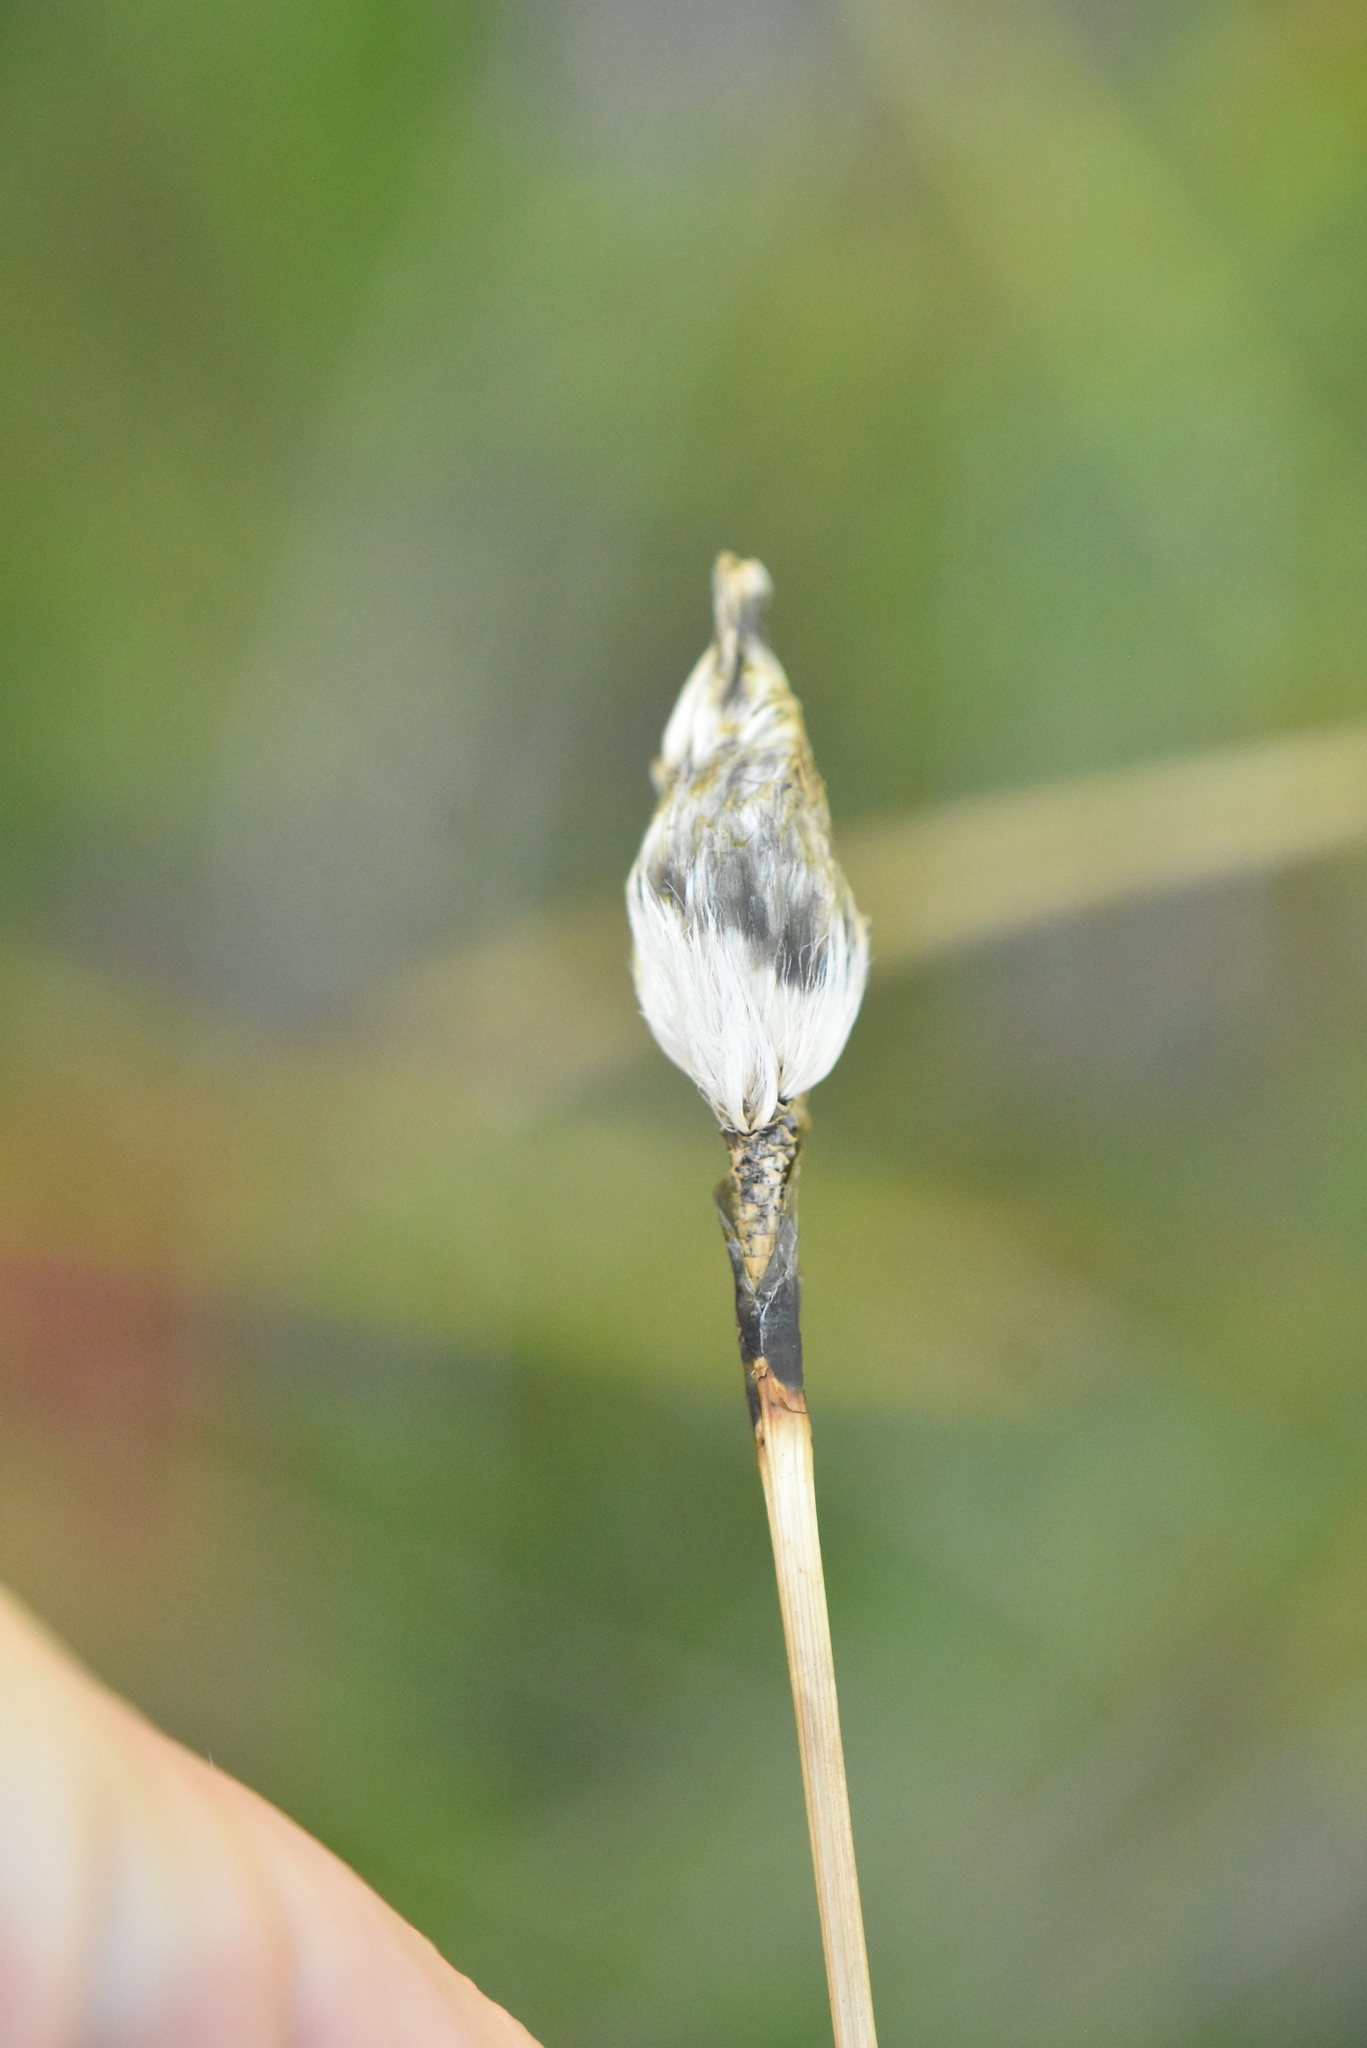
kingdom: Plantae
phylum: Tracheophyta
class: Liliopsida
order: Poales
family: Cyperaceae
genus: Eriophorum
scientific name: Eriophorum vaginatum
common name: Hare's-tail cottongrass
